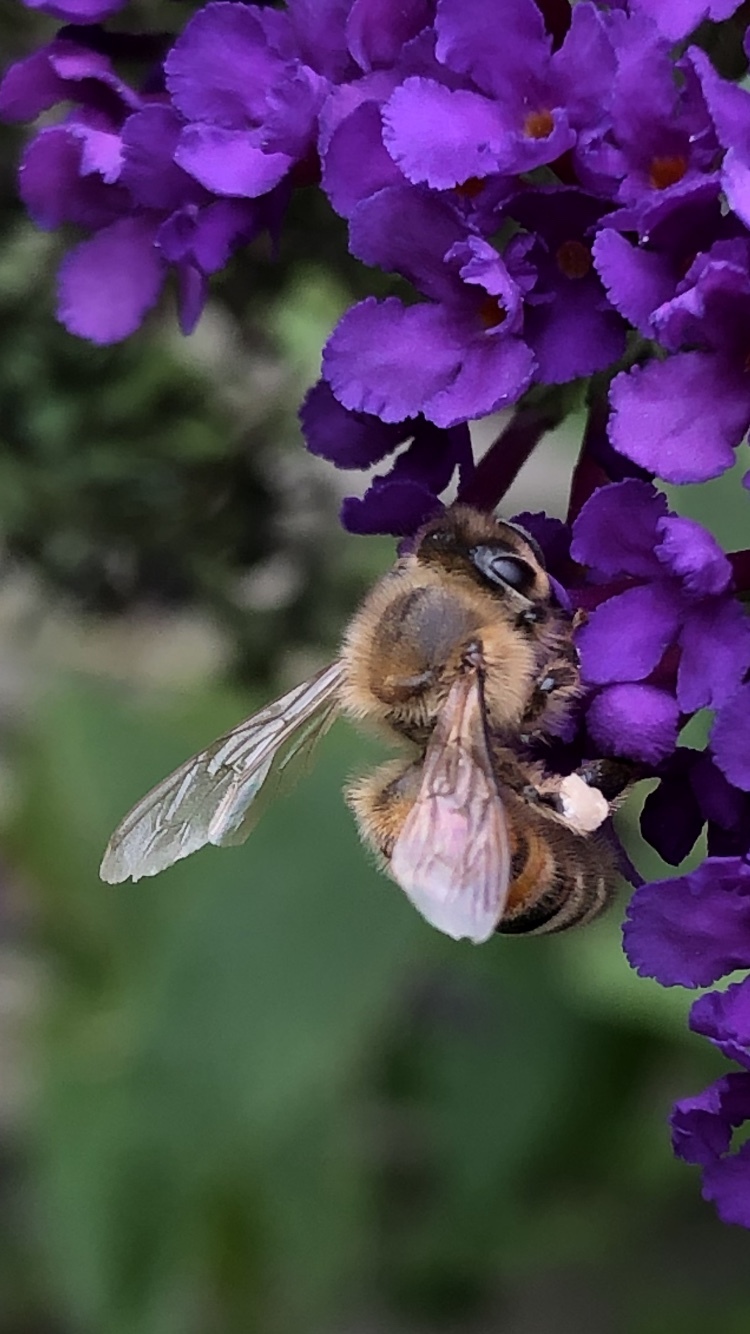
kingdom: Animalia
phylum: Arthropoda
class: Insecta
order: Hymenoptera
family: Apidae
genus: Apis
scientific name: Apis mellifera
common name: Honey bee
